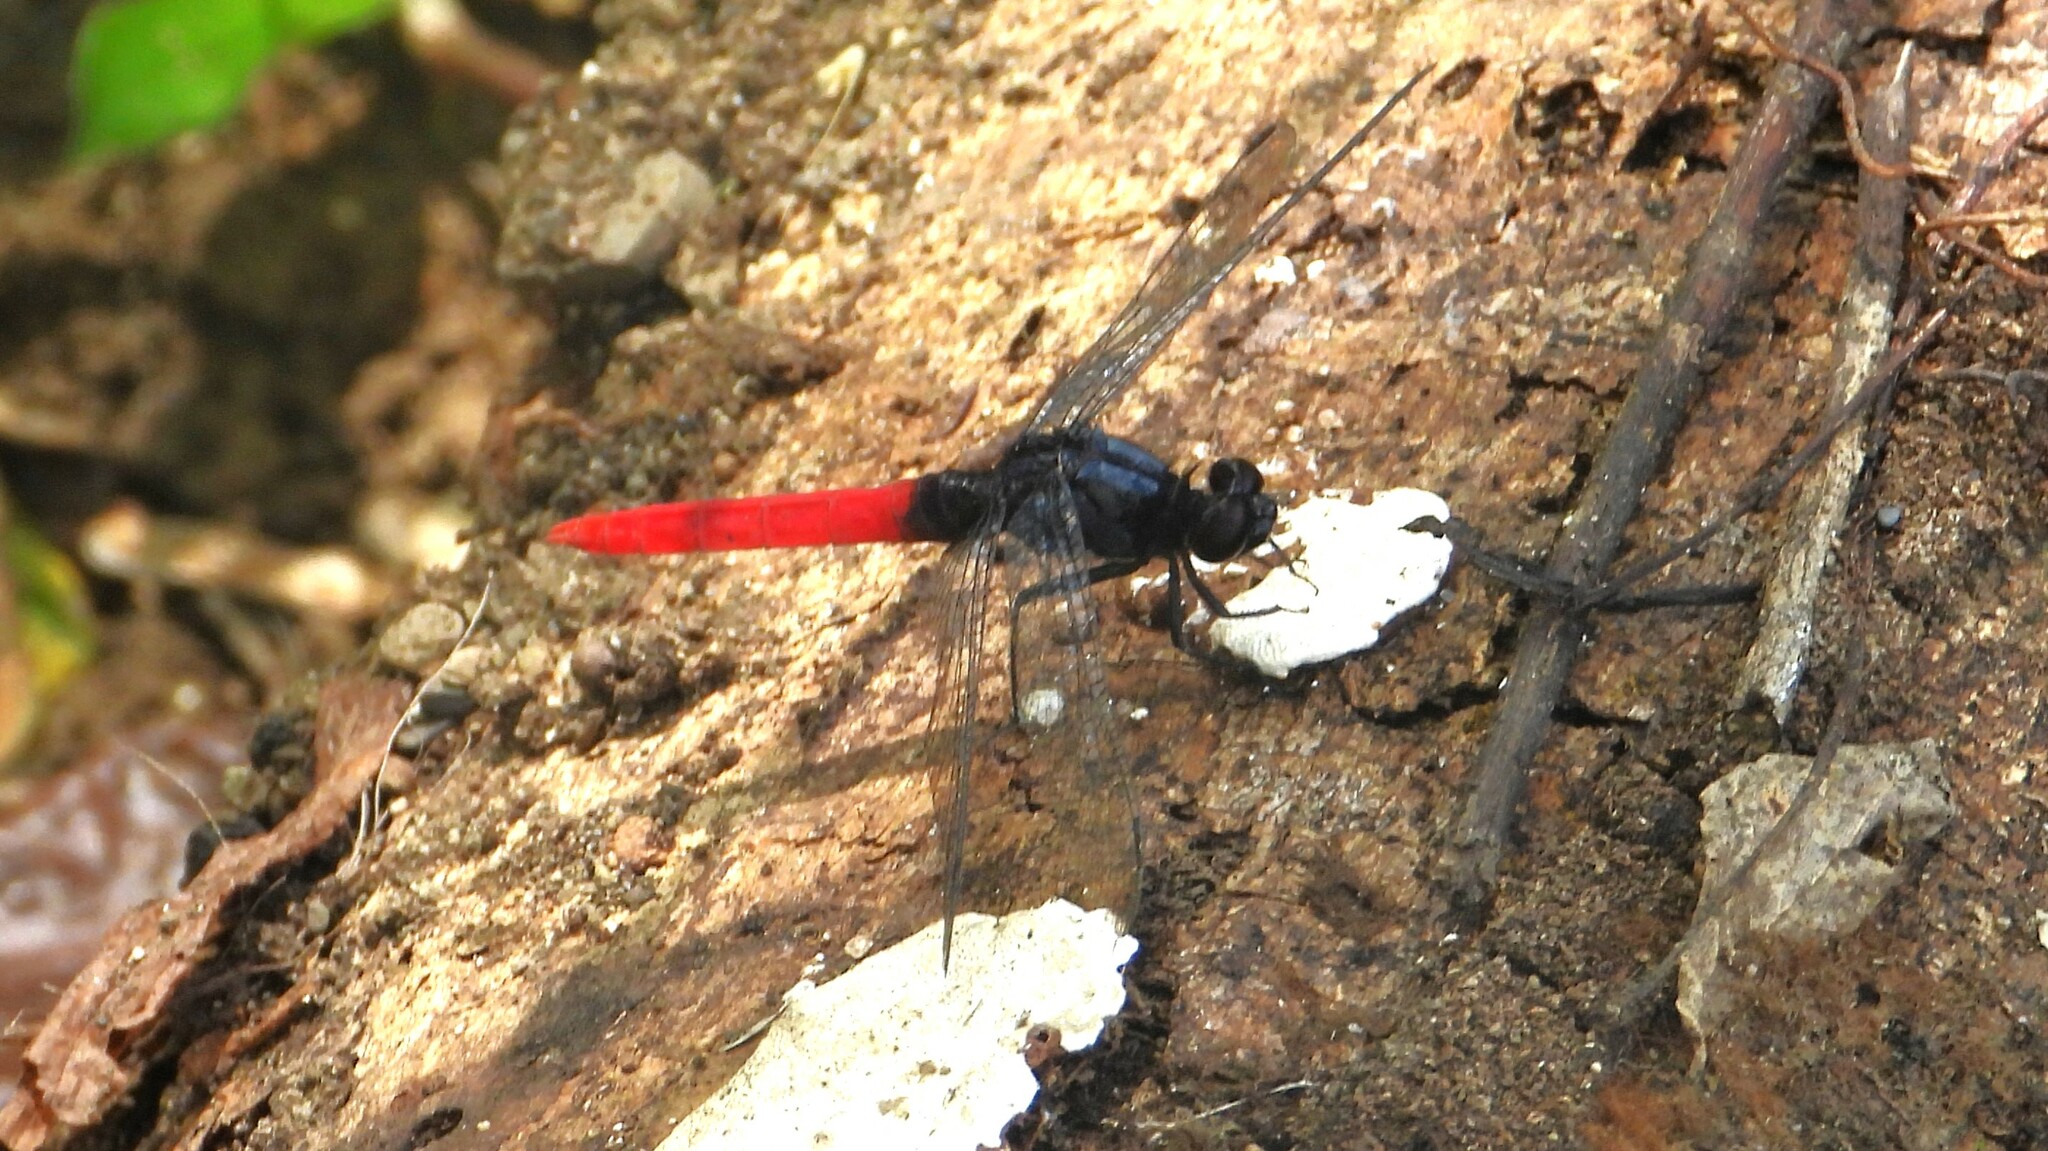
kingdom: Animalia
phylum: Arthropoda
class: Insecta
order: Odonata
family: Libellulidae
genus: Erythemis
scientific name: Erythemis peruviana
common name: Flame-tailed pondhawk
